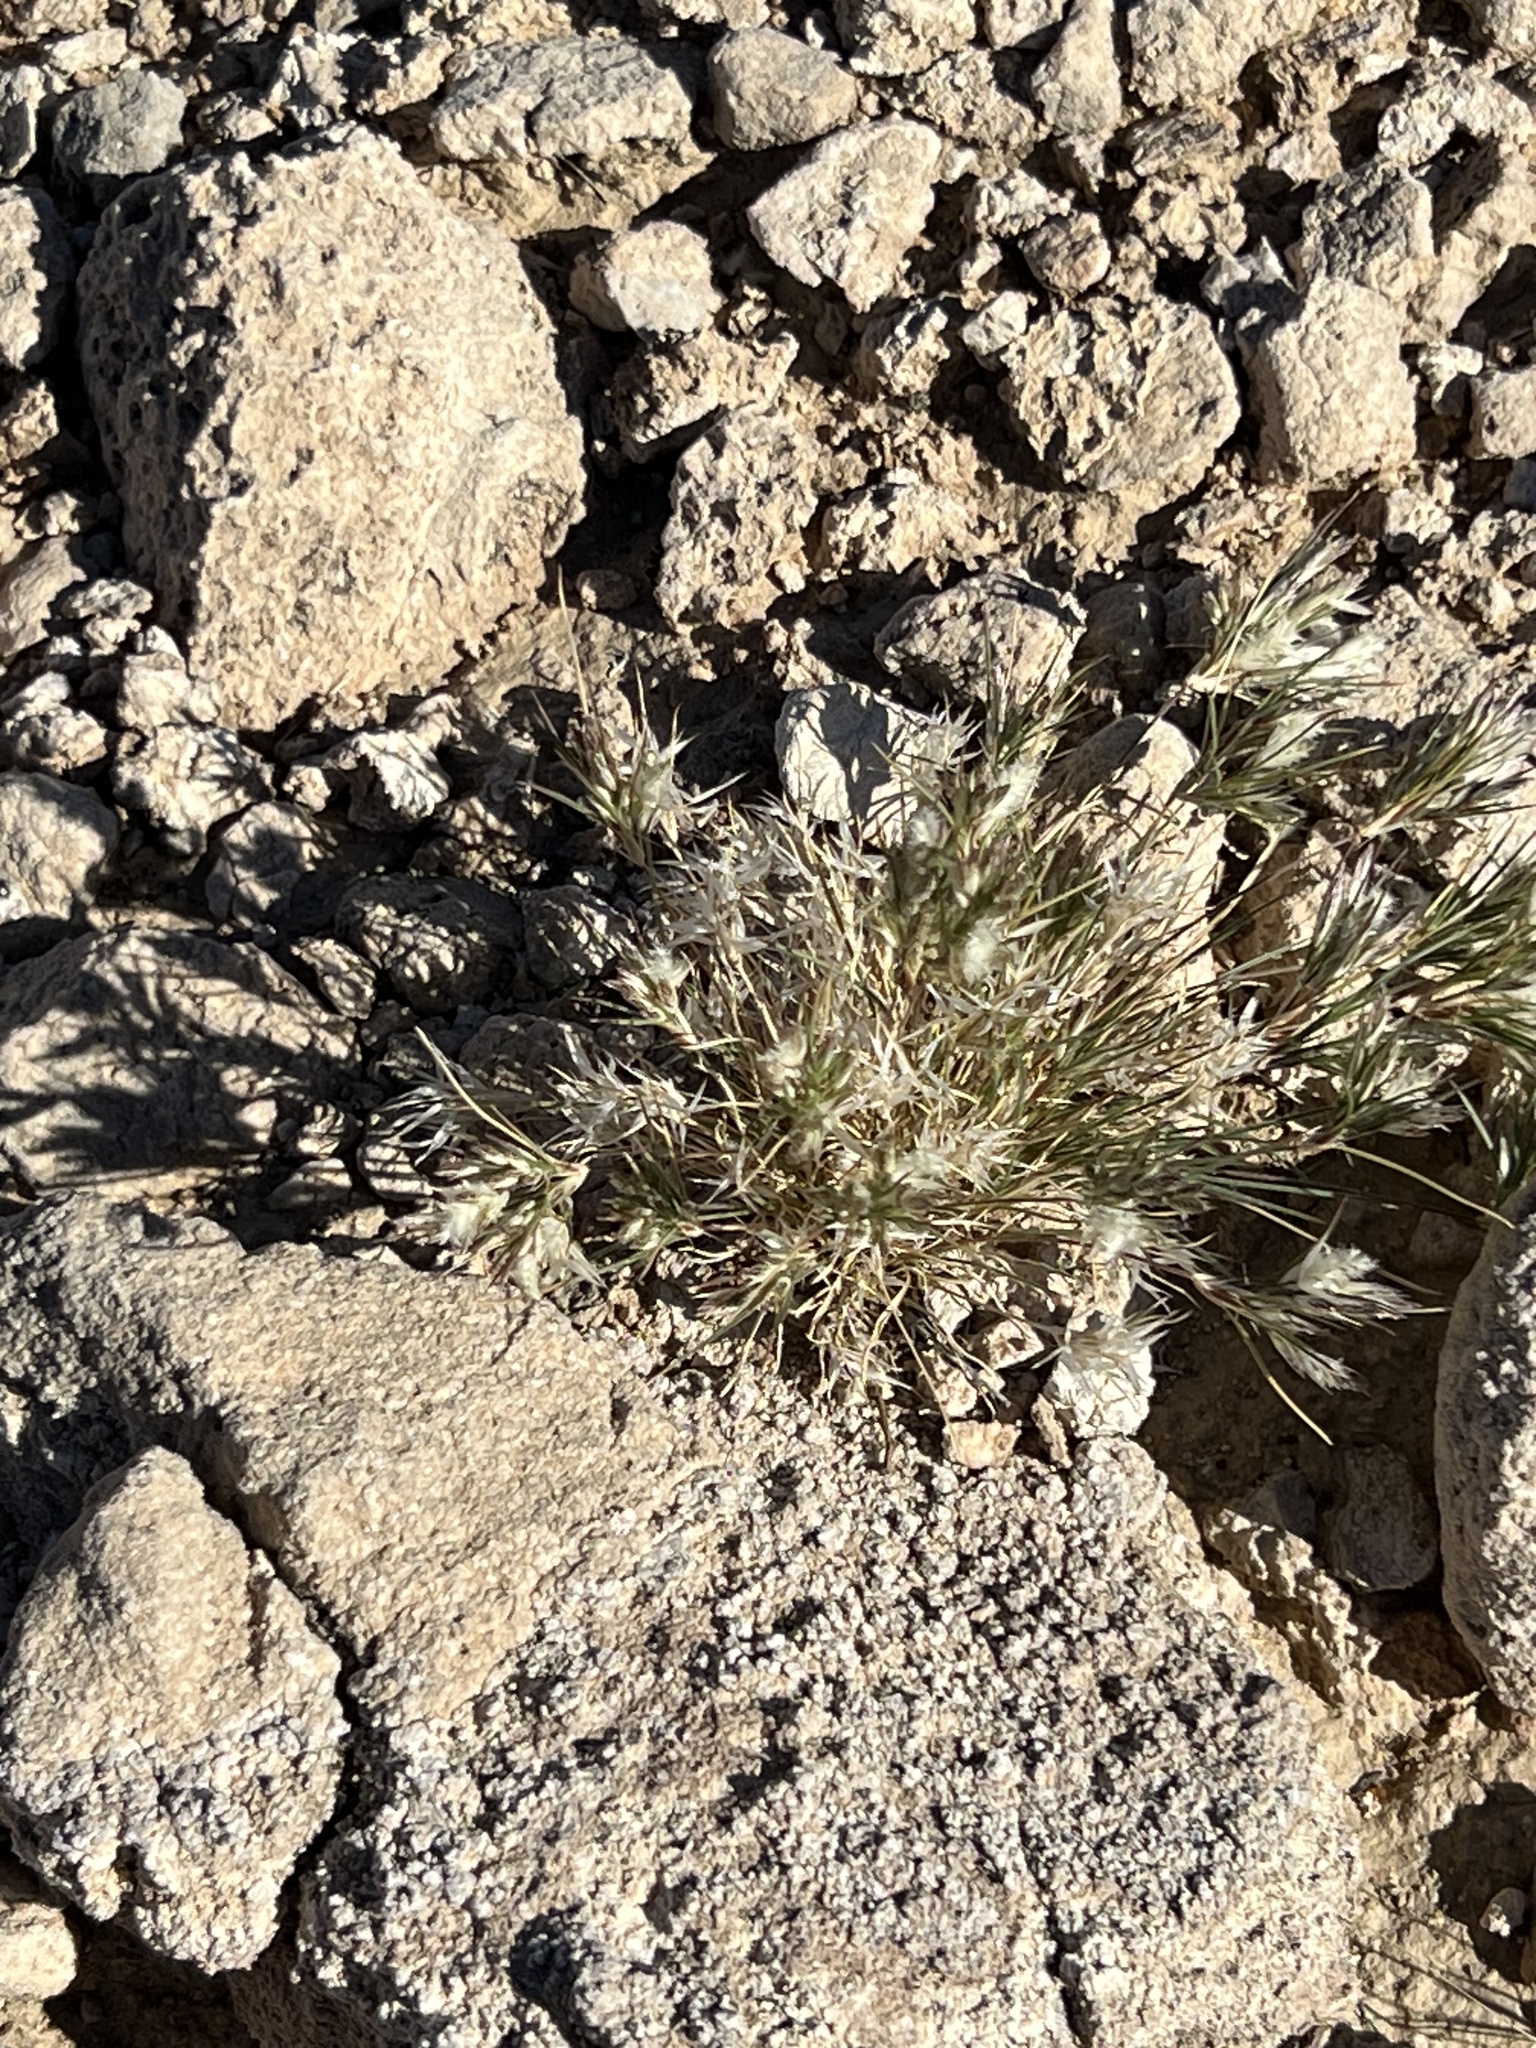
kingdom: Plantae
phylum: Tracheophyta
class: Liliopsida
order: Poales
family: Poaceae
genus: Dasyochloa
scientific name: Dasyochloa pulchella
